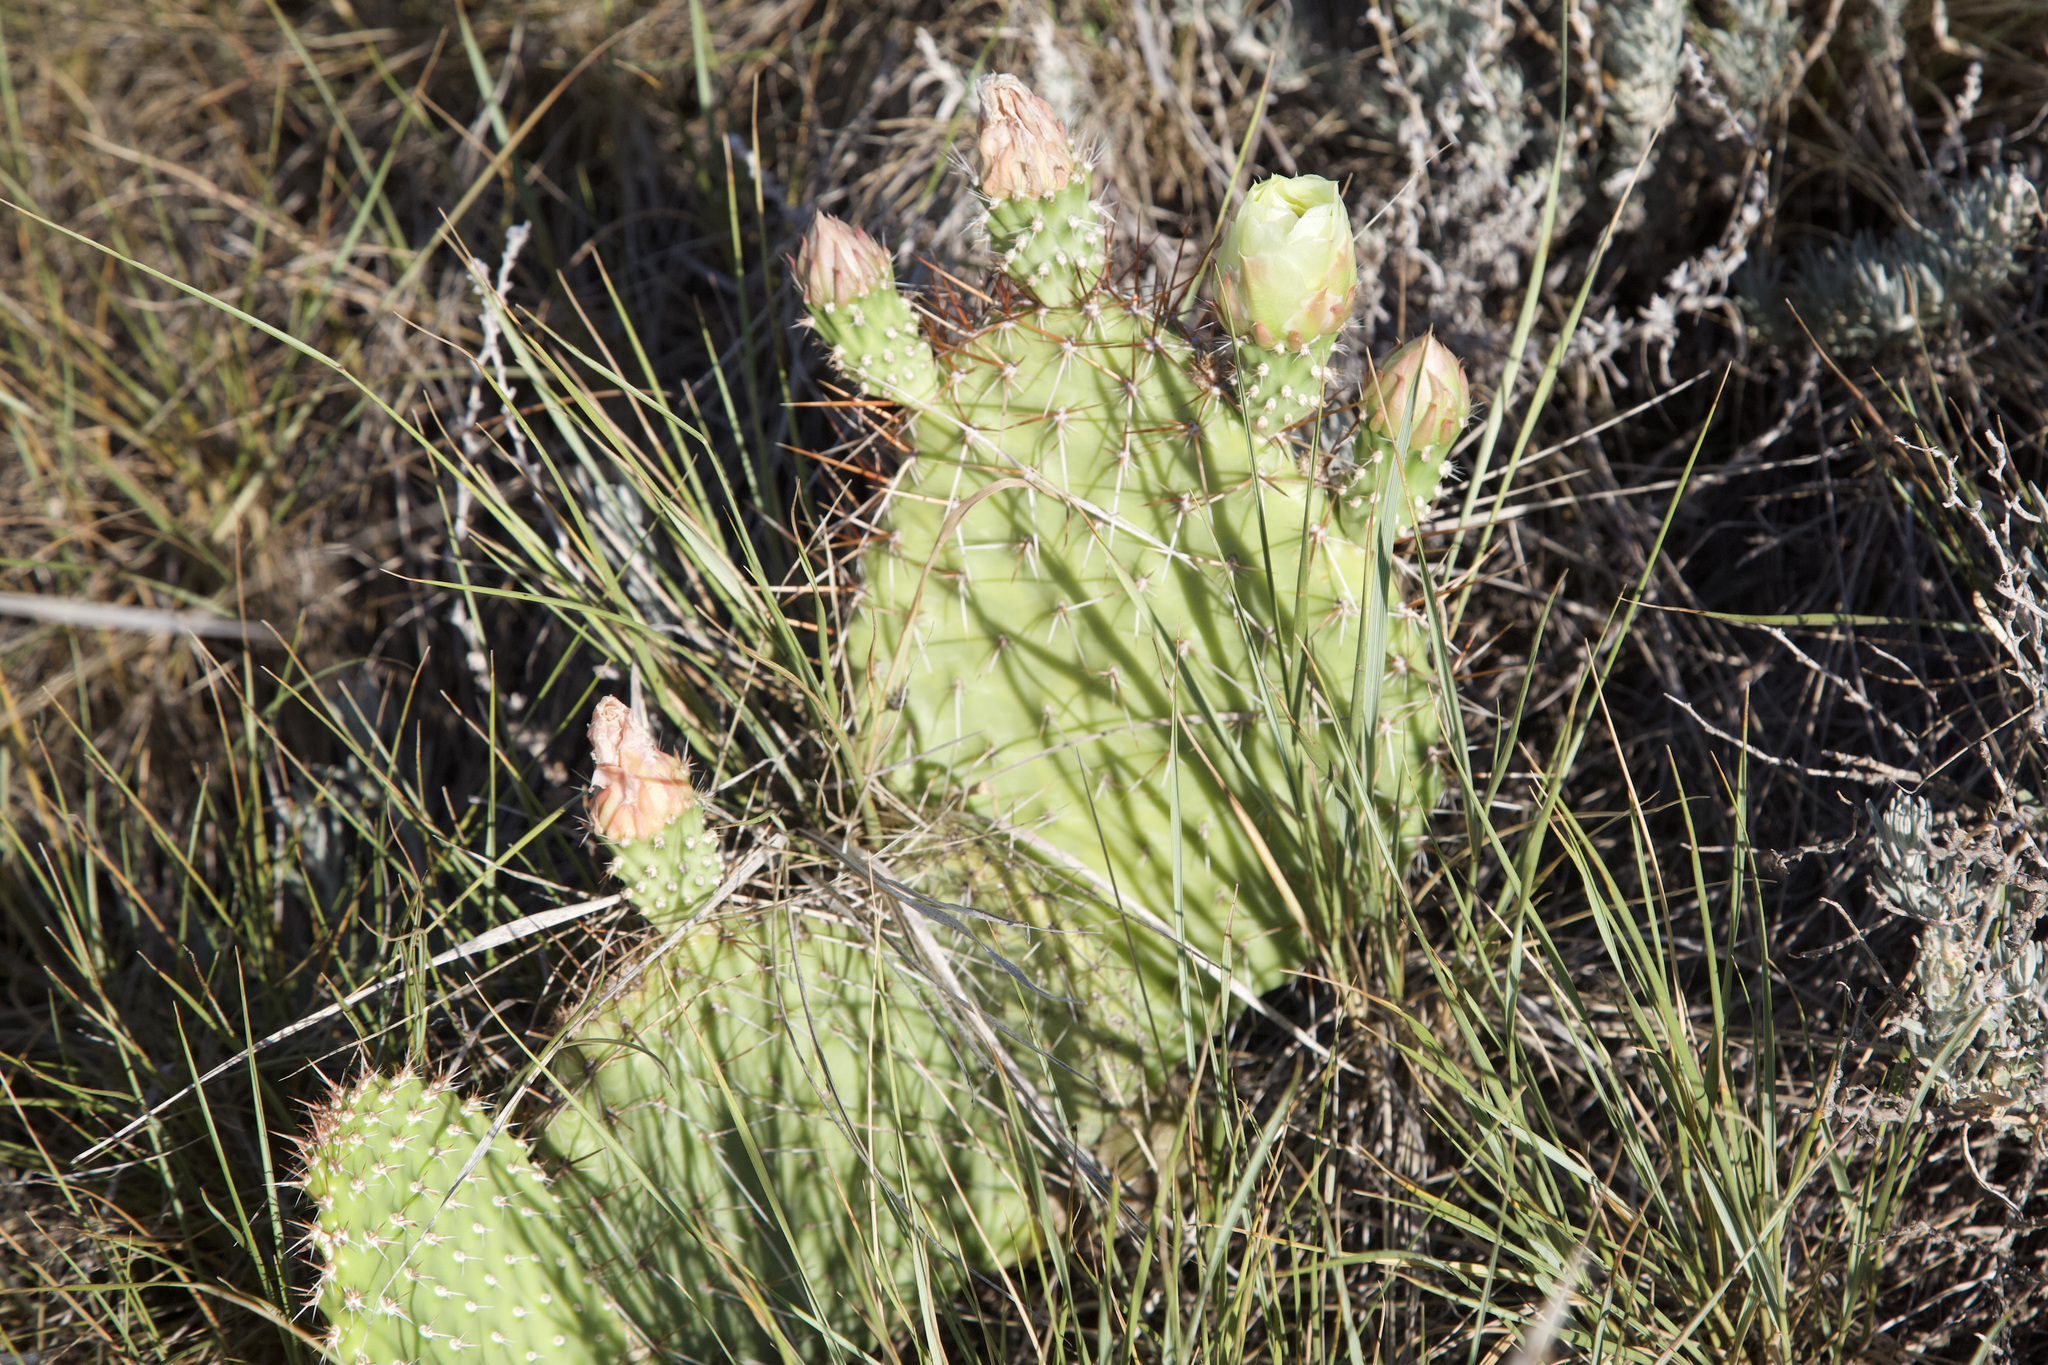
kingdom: Plantae
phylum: Tracheophyta
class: Magnoliopsida
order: Caryophyllales
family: Cactaceae
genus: Opuntia
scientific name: Opuntia polyacantha
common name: Plains prickly-pear
